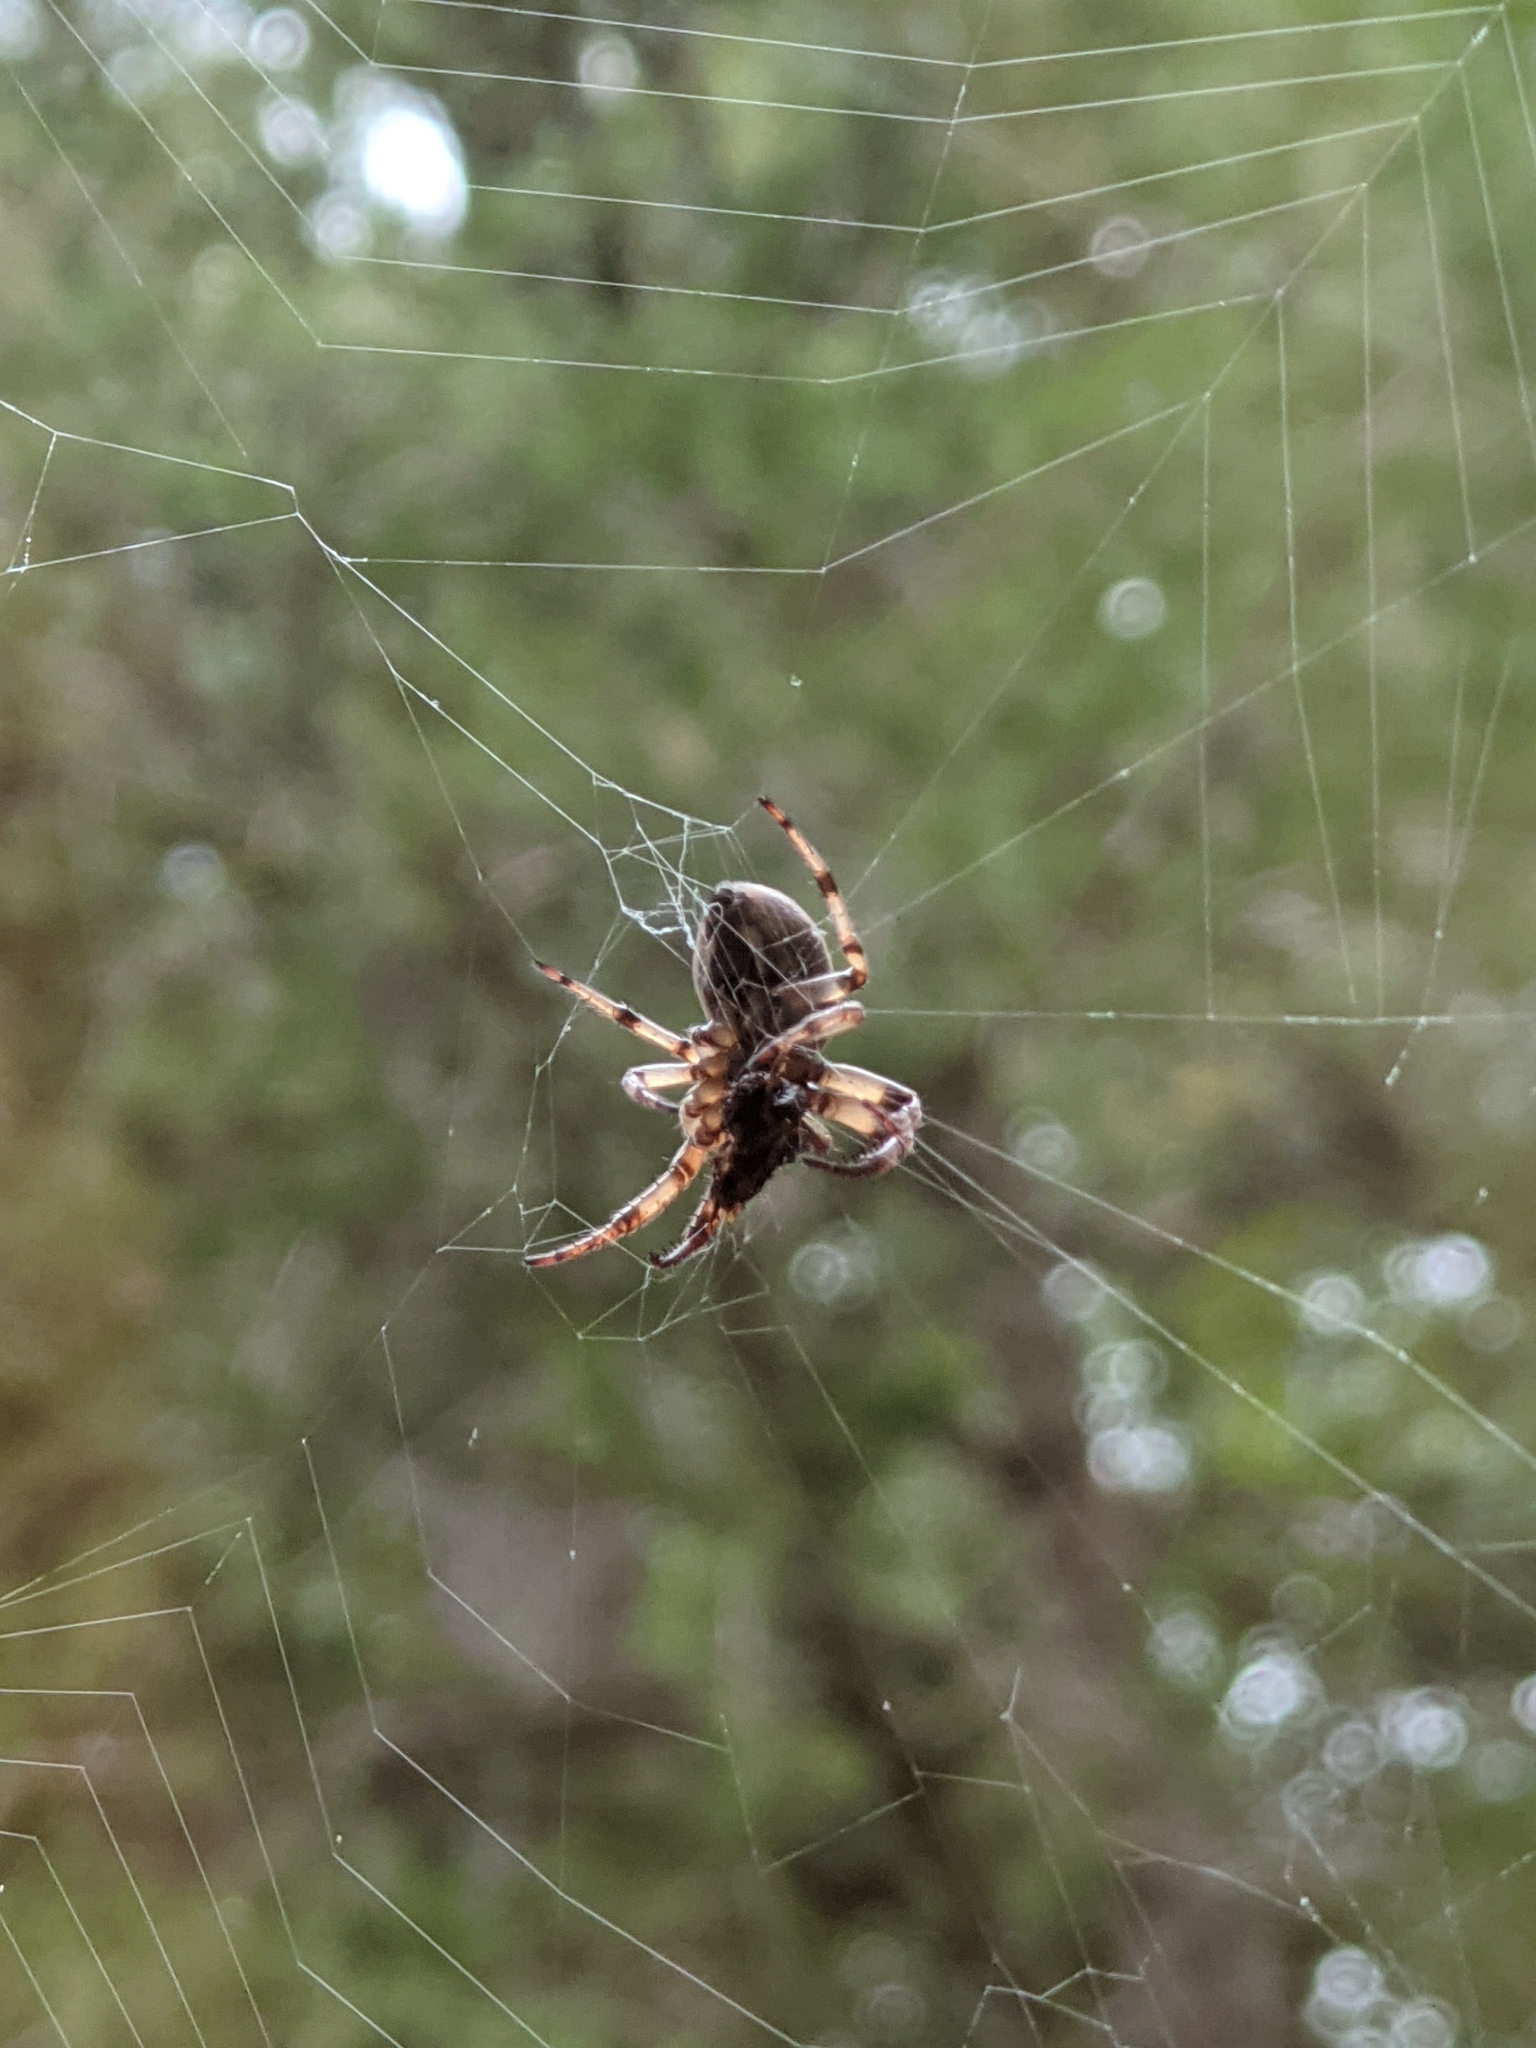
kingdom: Animalia
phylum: Arthropoda
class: Arachnida
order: Araneae
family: Araneidae
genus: Larinioides
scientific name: Larinioides cornutus
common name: Furrow orbweaver
